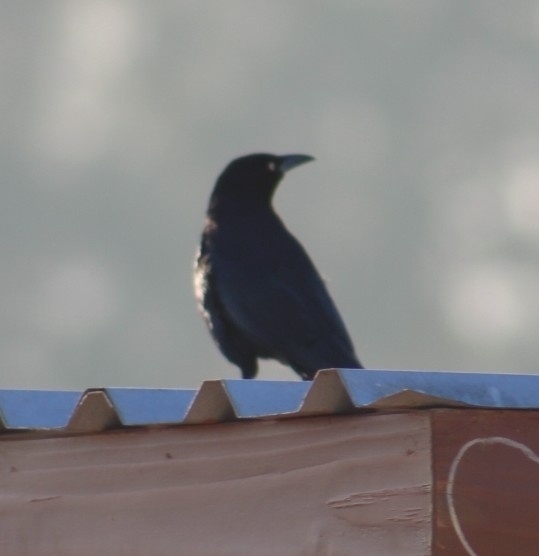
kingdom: Animalia
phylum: Chordata
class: Aves
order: Passeriformes
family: Icteridae
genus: Quiscalus
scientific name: Quiscalus mexicanus
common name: Great-tailed grackle
